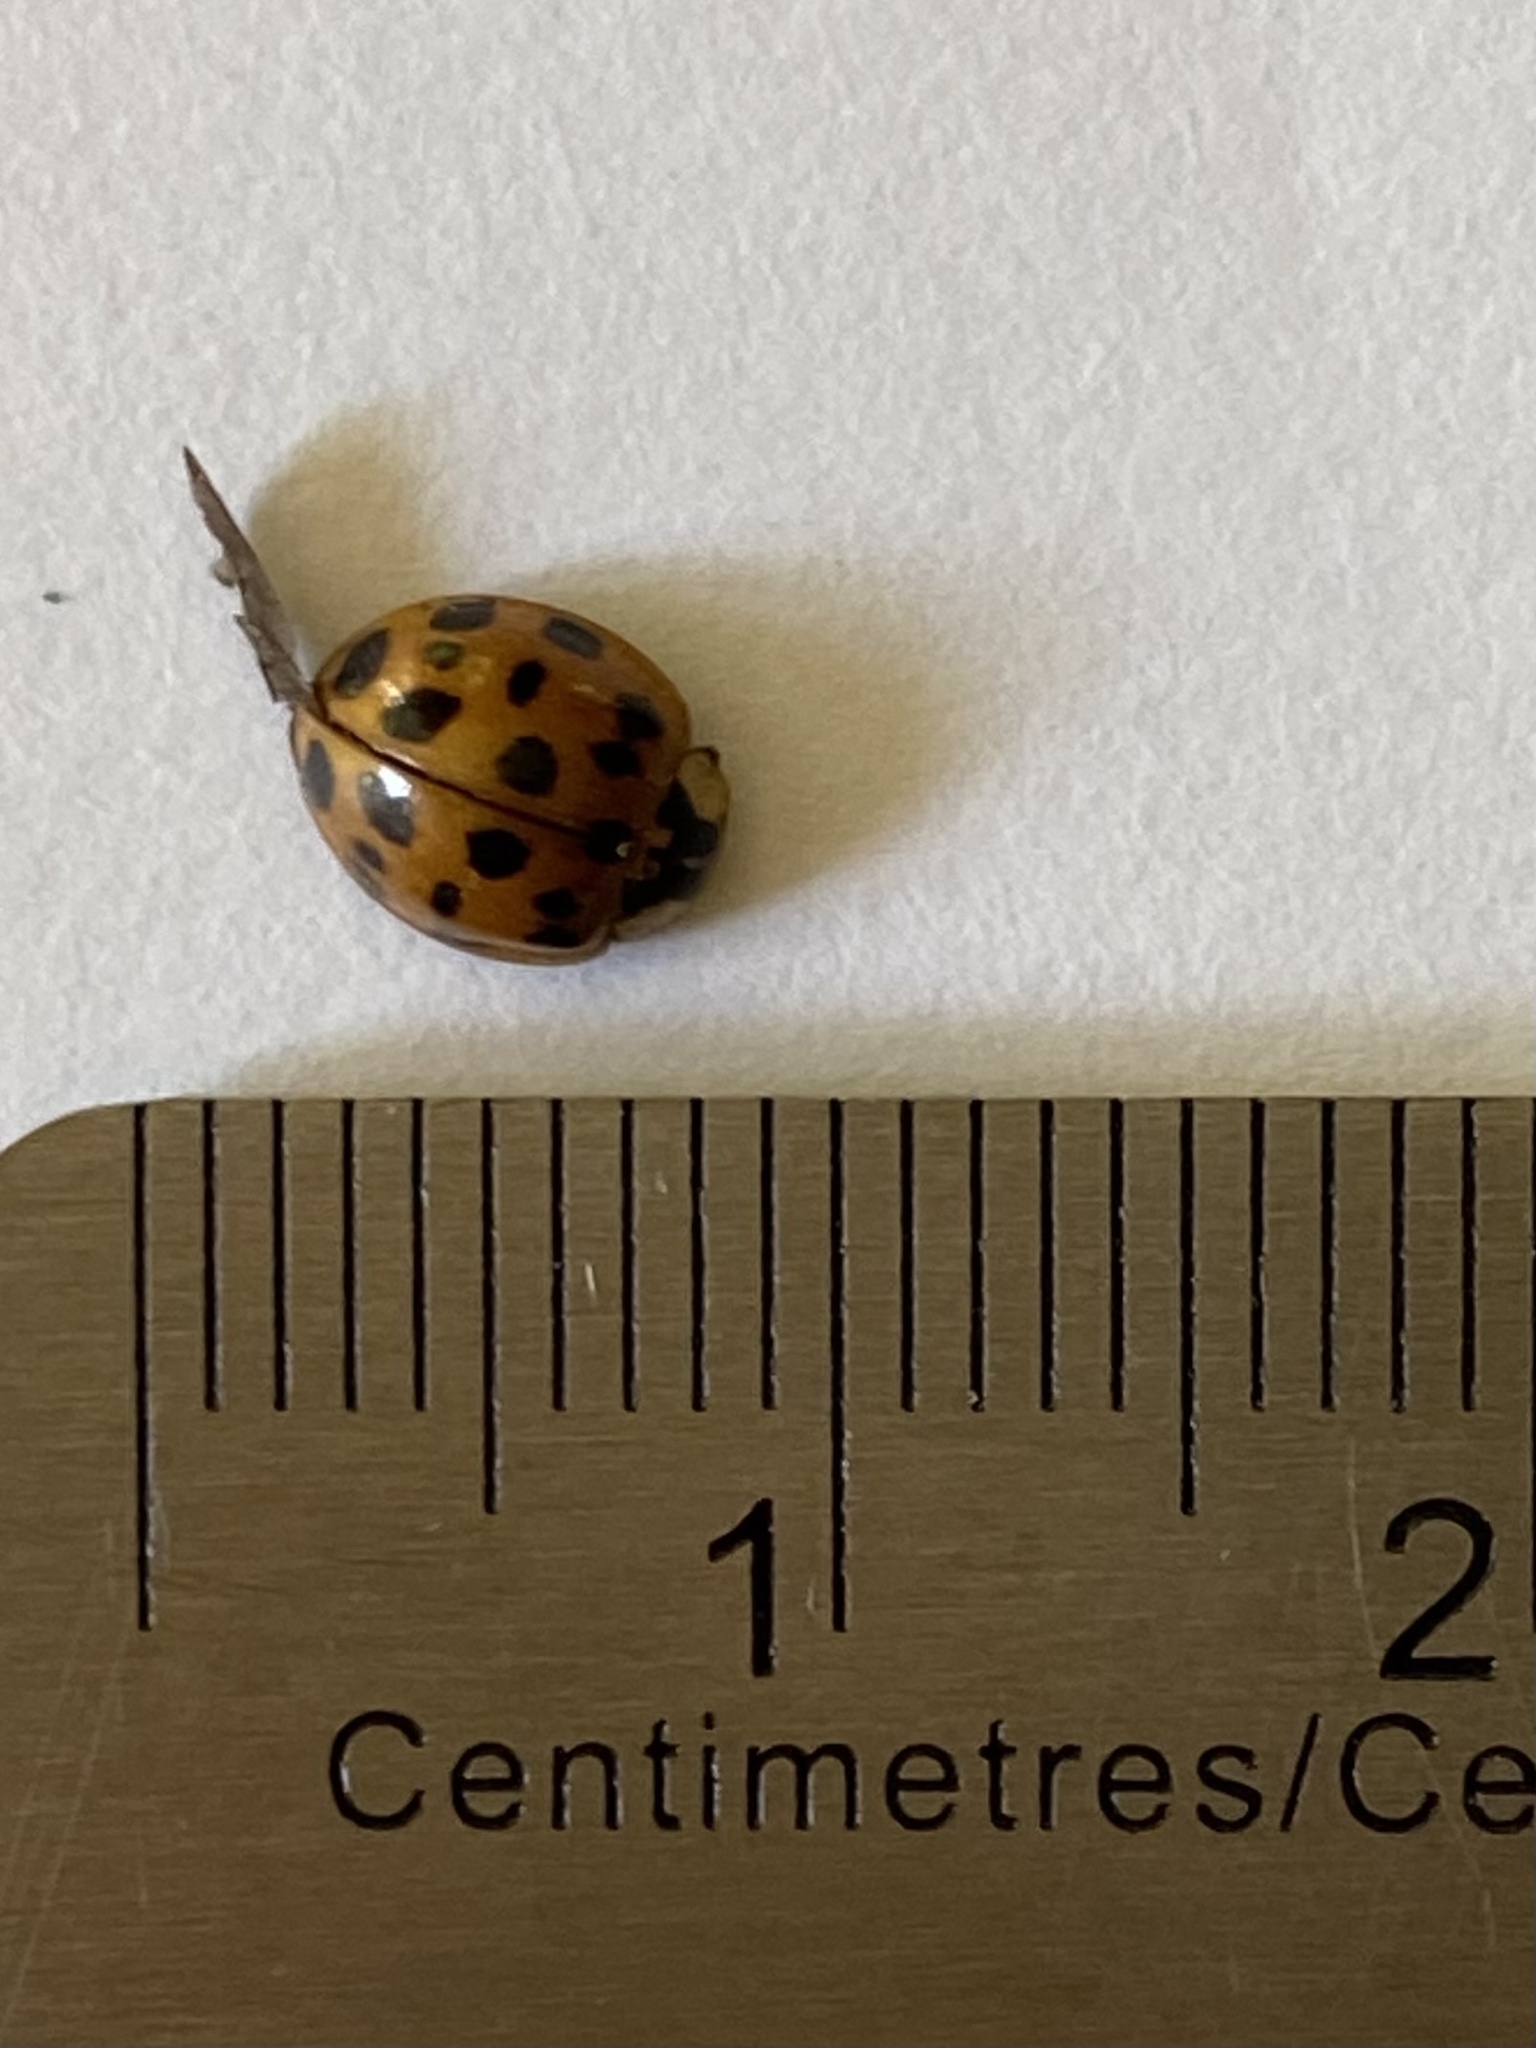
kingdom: Animalia
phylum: Arthropoda
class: Insecta
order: Coleoptera
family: Coccinellidae
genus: Harmonia
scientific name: Harmonia axyridis
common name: Harlequin ladybird
